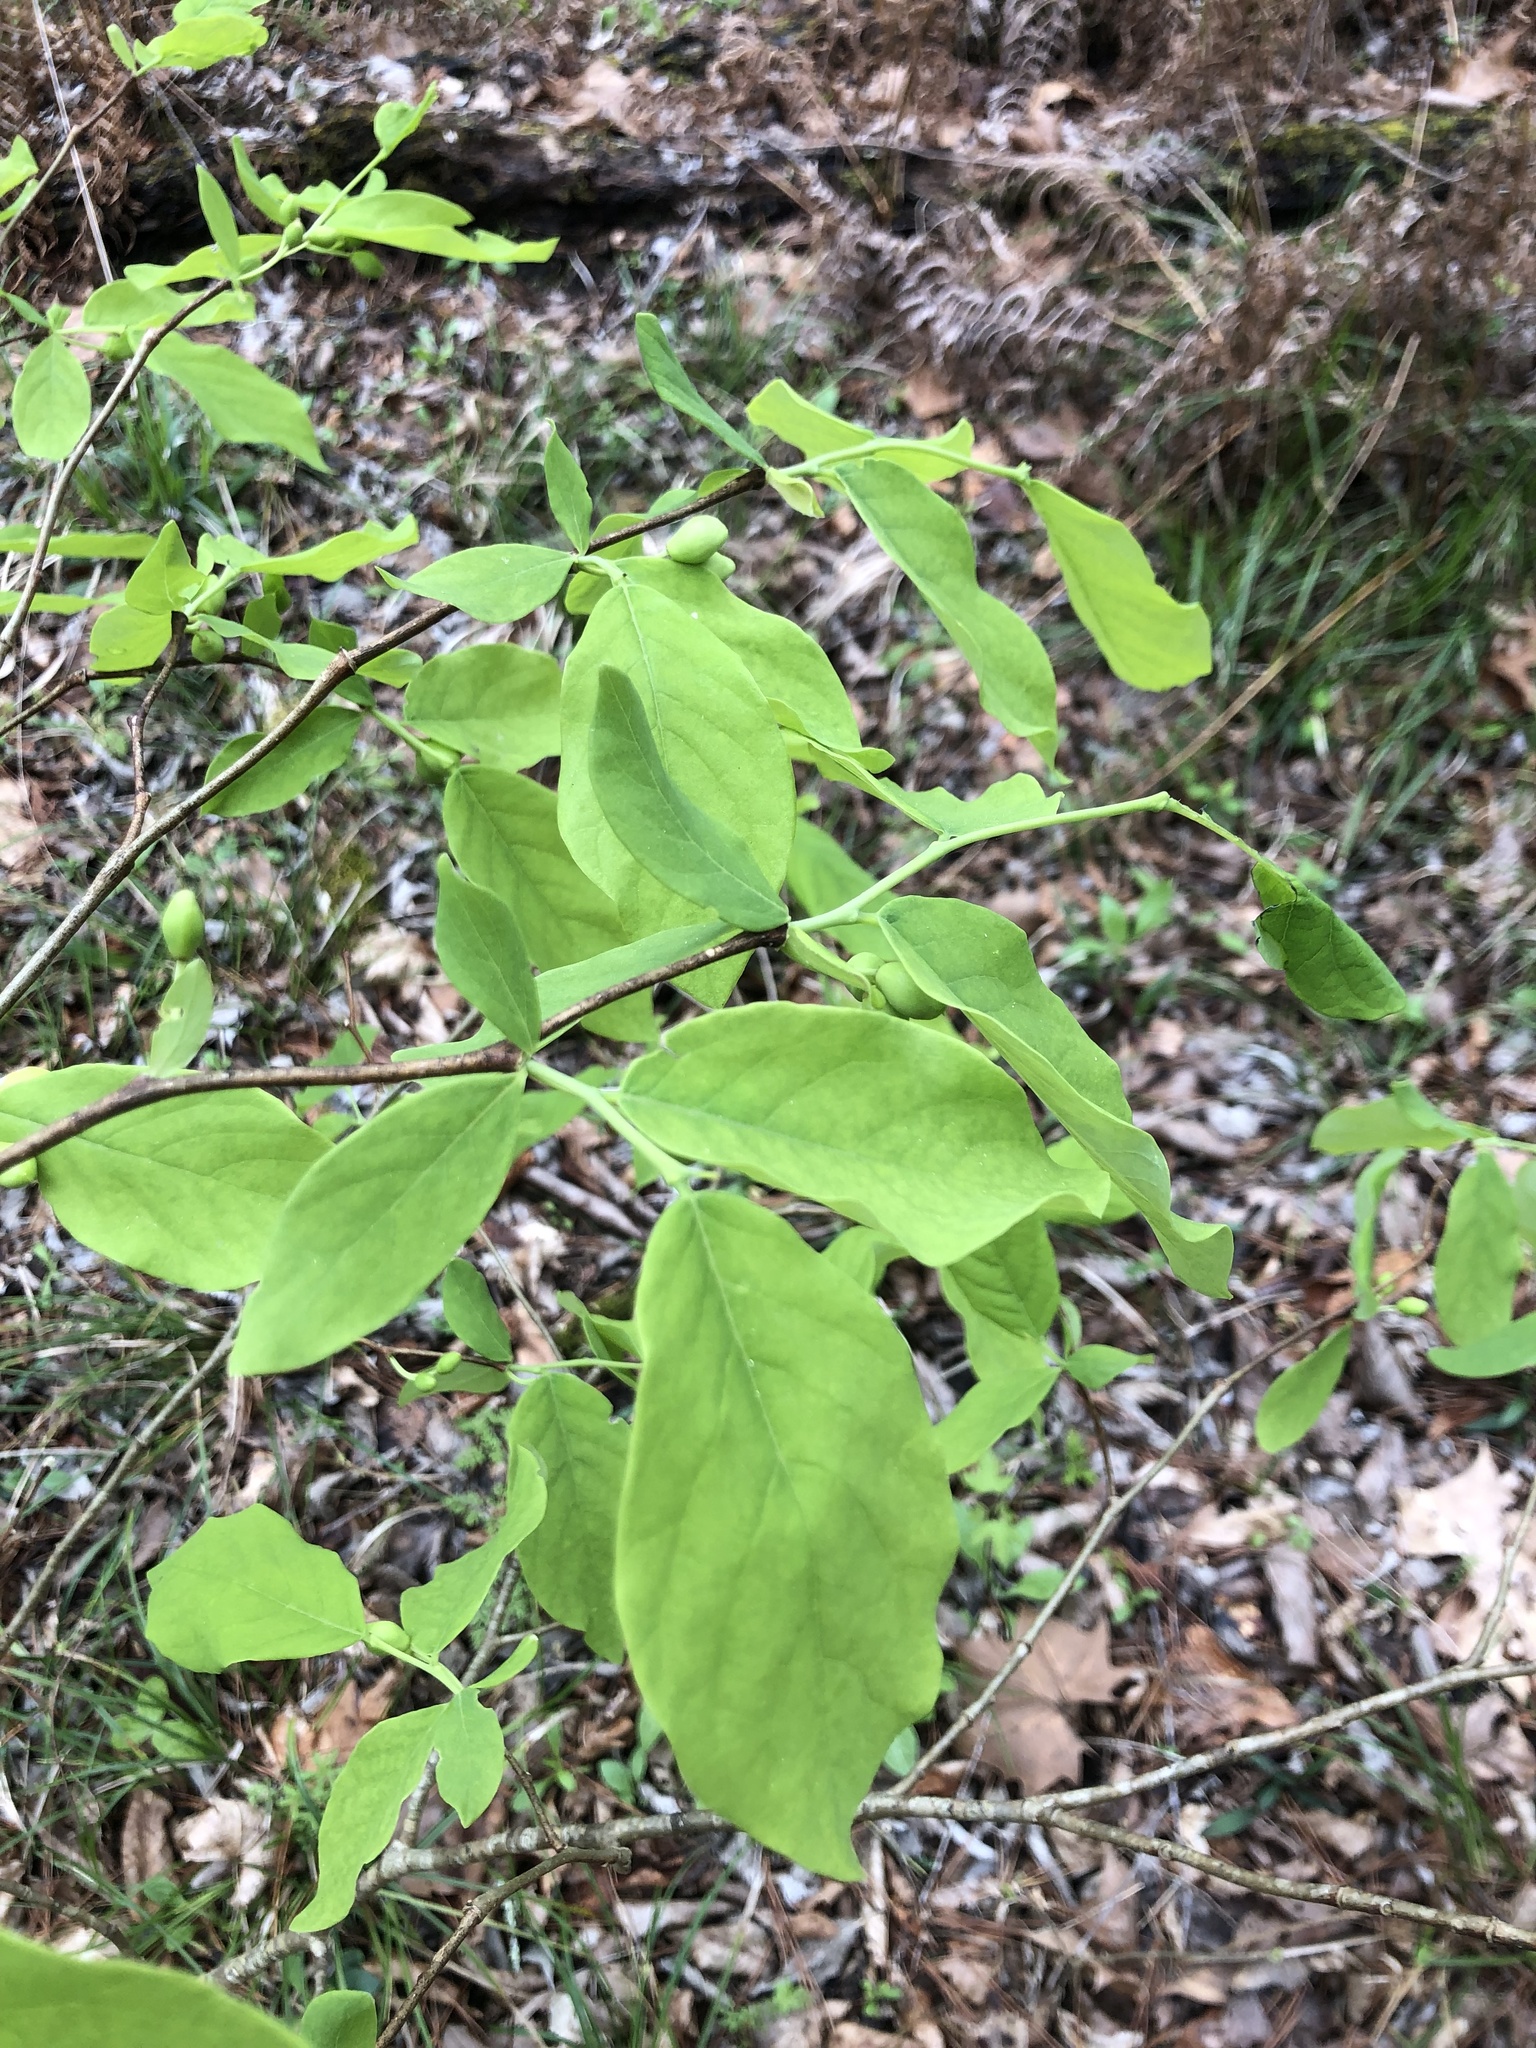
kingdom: Plantae
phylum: Tracheophyta
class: Magnoliopsida
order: Malvales
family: Thymelaeaceae
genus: Dirca
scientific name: Dirca palustris
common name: Leatherwood
